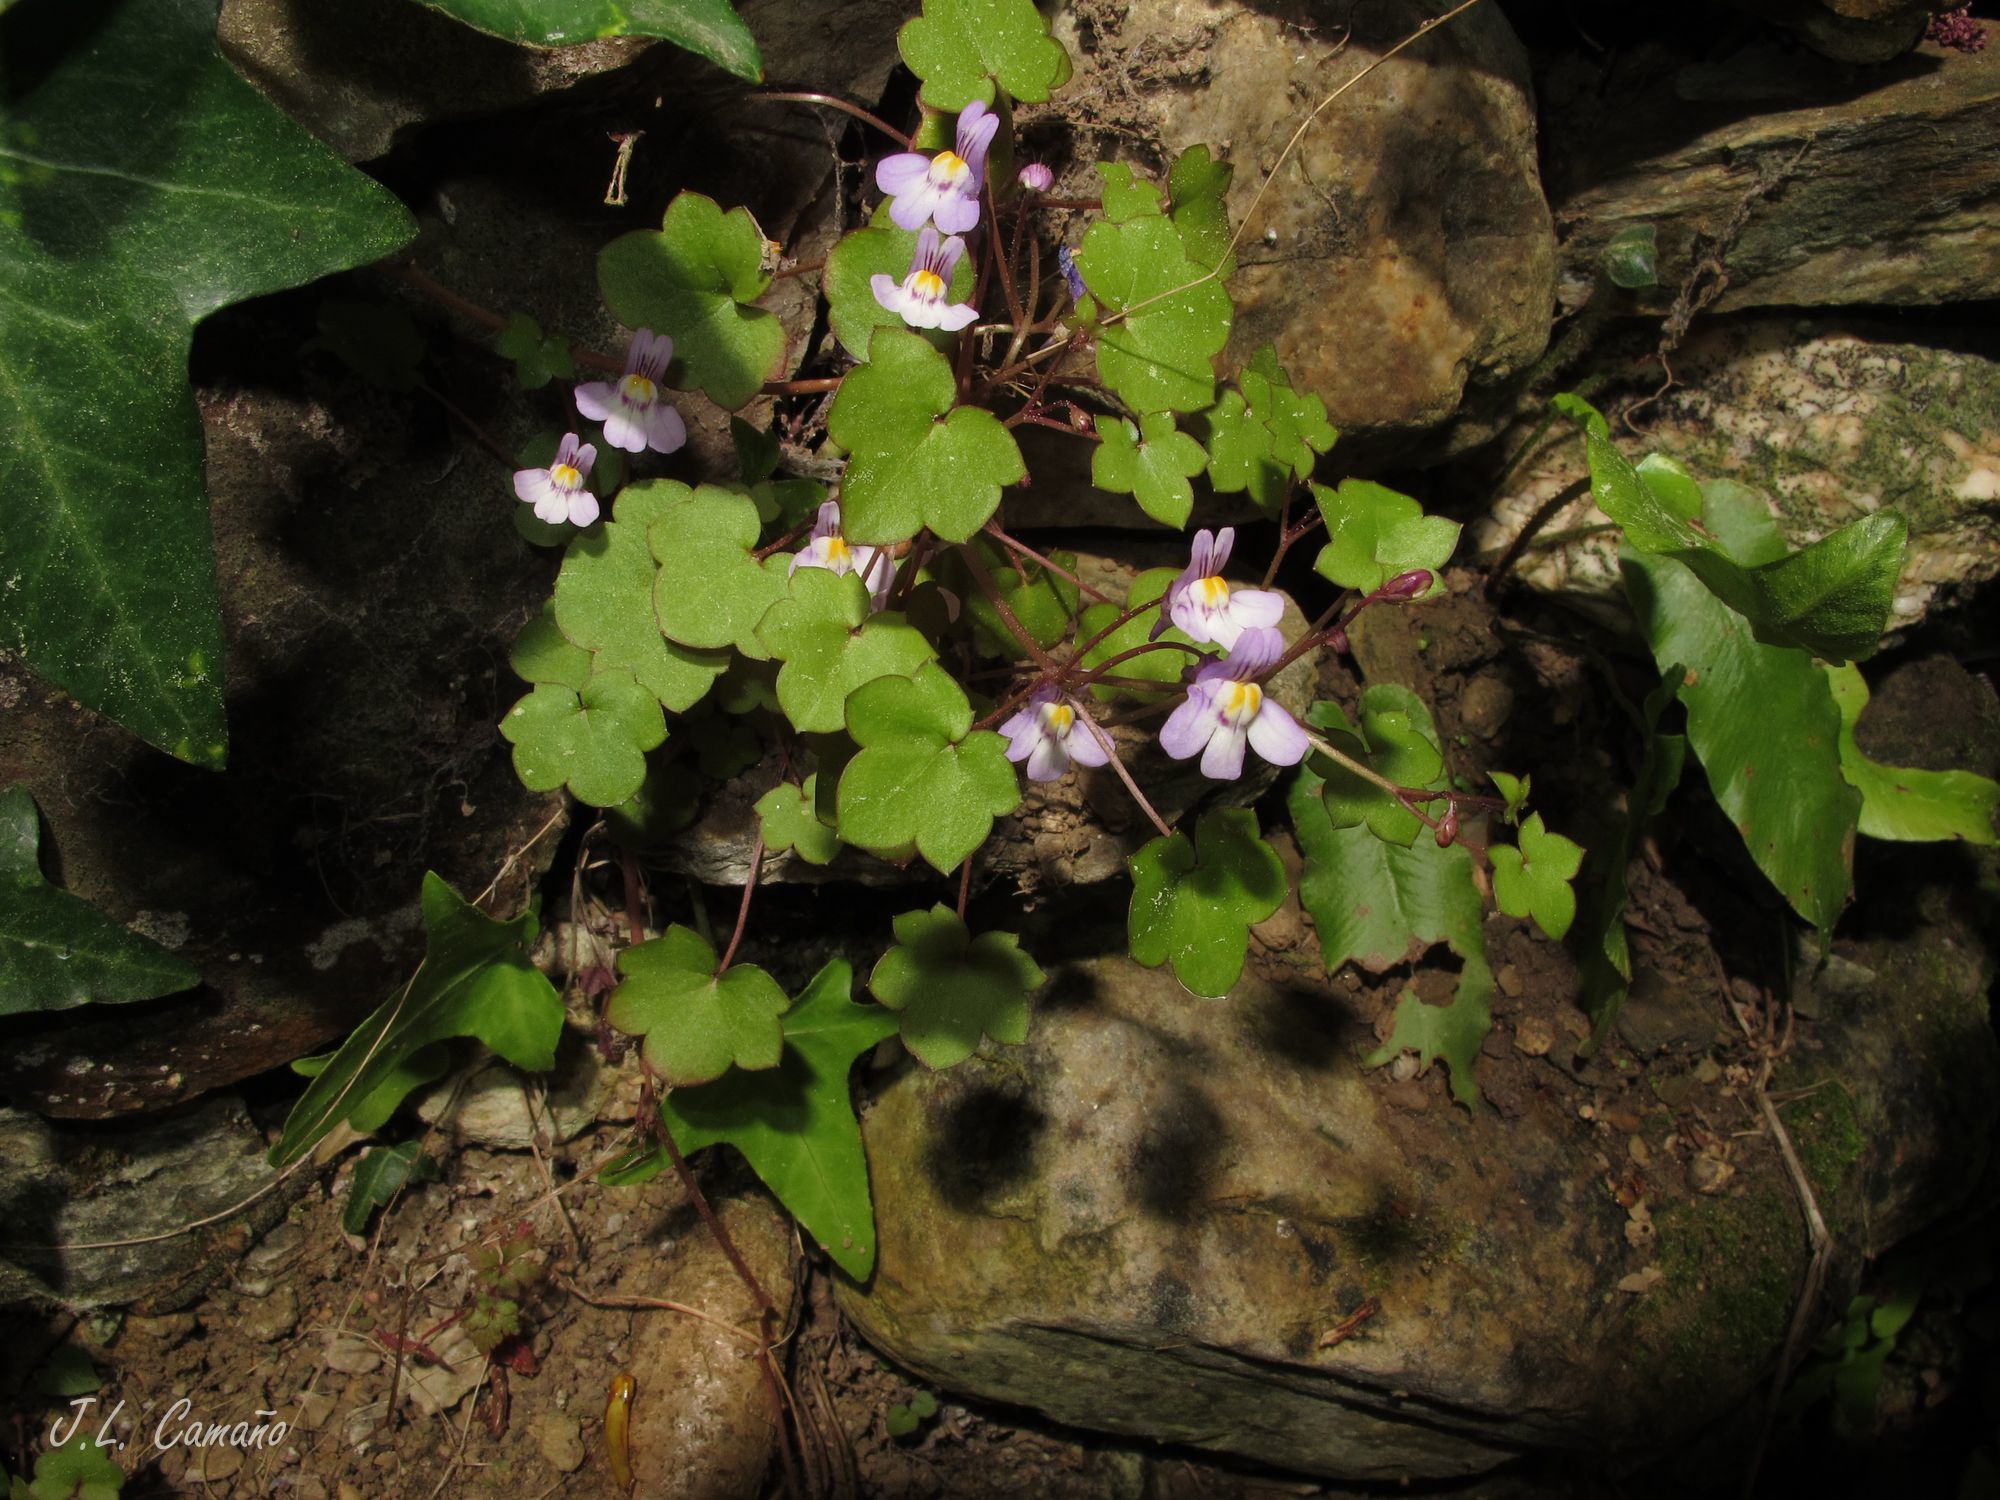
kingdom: Plantae
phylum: Tracheophyta
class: Magnoliopsida
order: Lamiales
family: Plantaginaceae
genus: Cymbalaria
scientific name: Cymbalaria muralis
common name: Ivy-leaved toadflax
